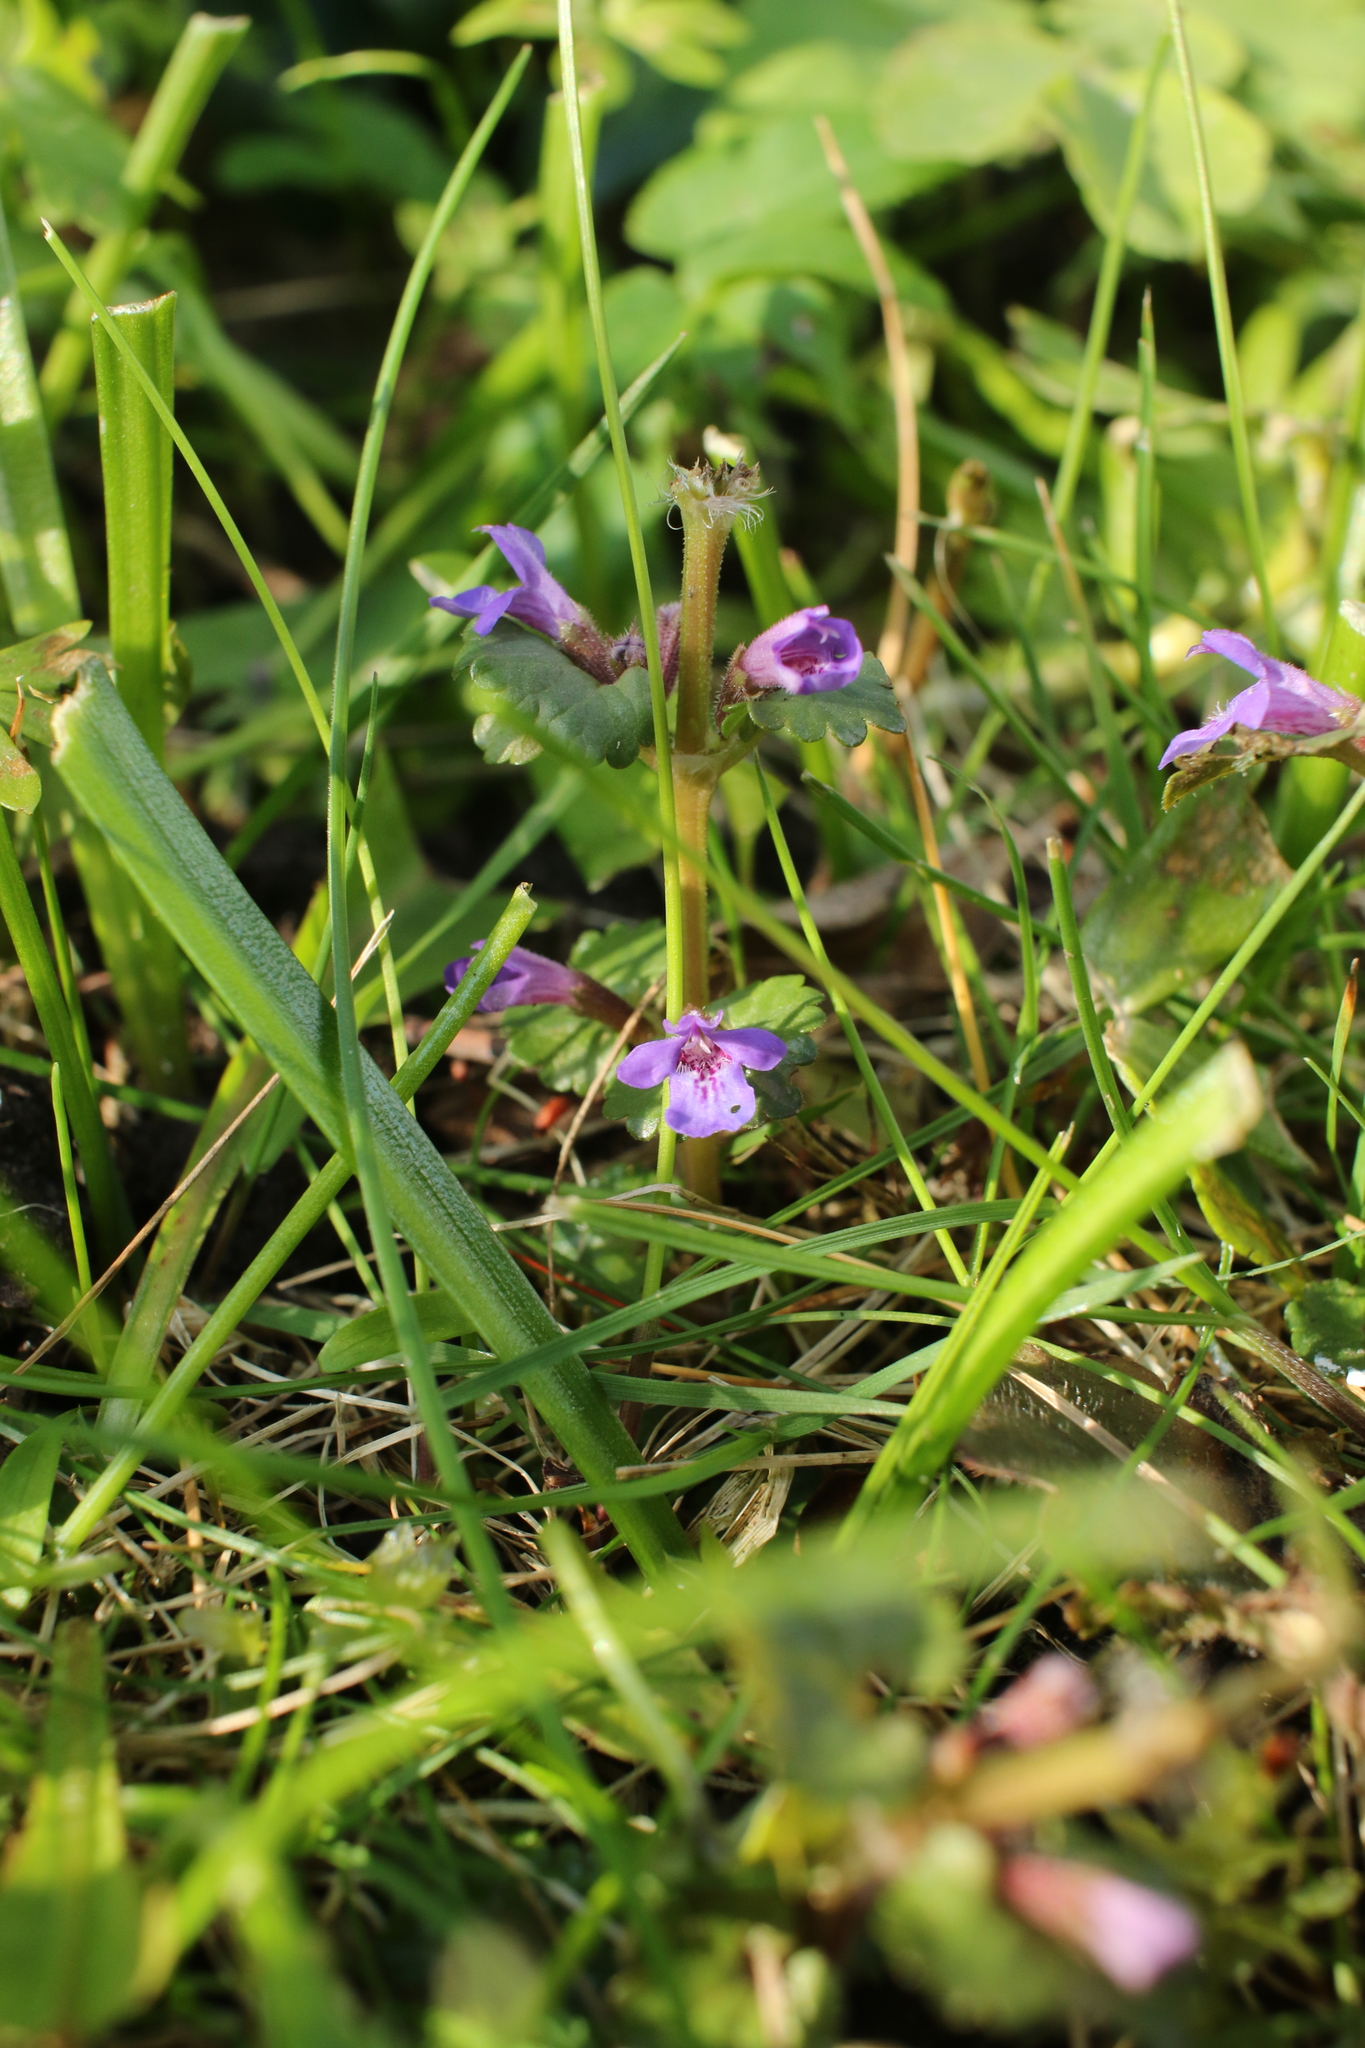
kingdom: Plantae
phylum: Tracheophyta
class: Magnoliopsida
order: Lamiales
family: Lamiaceae
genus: Glechoma
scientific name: Glechoma hederacea
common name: Ground ivy
